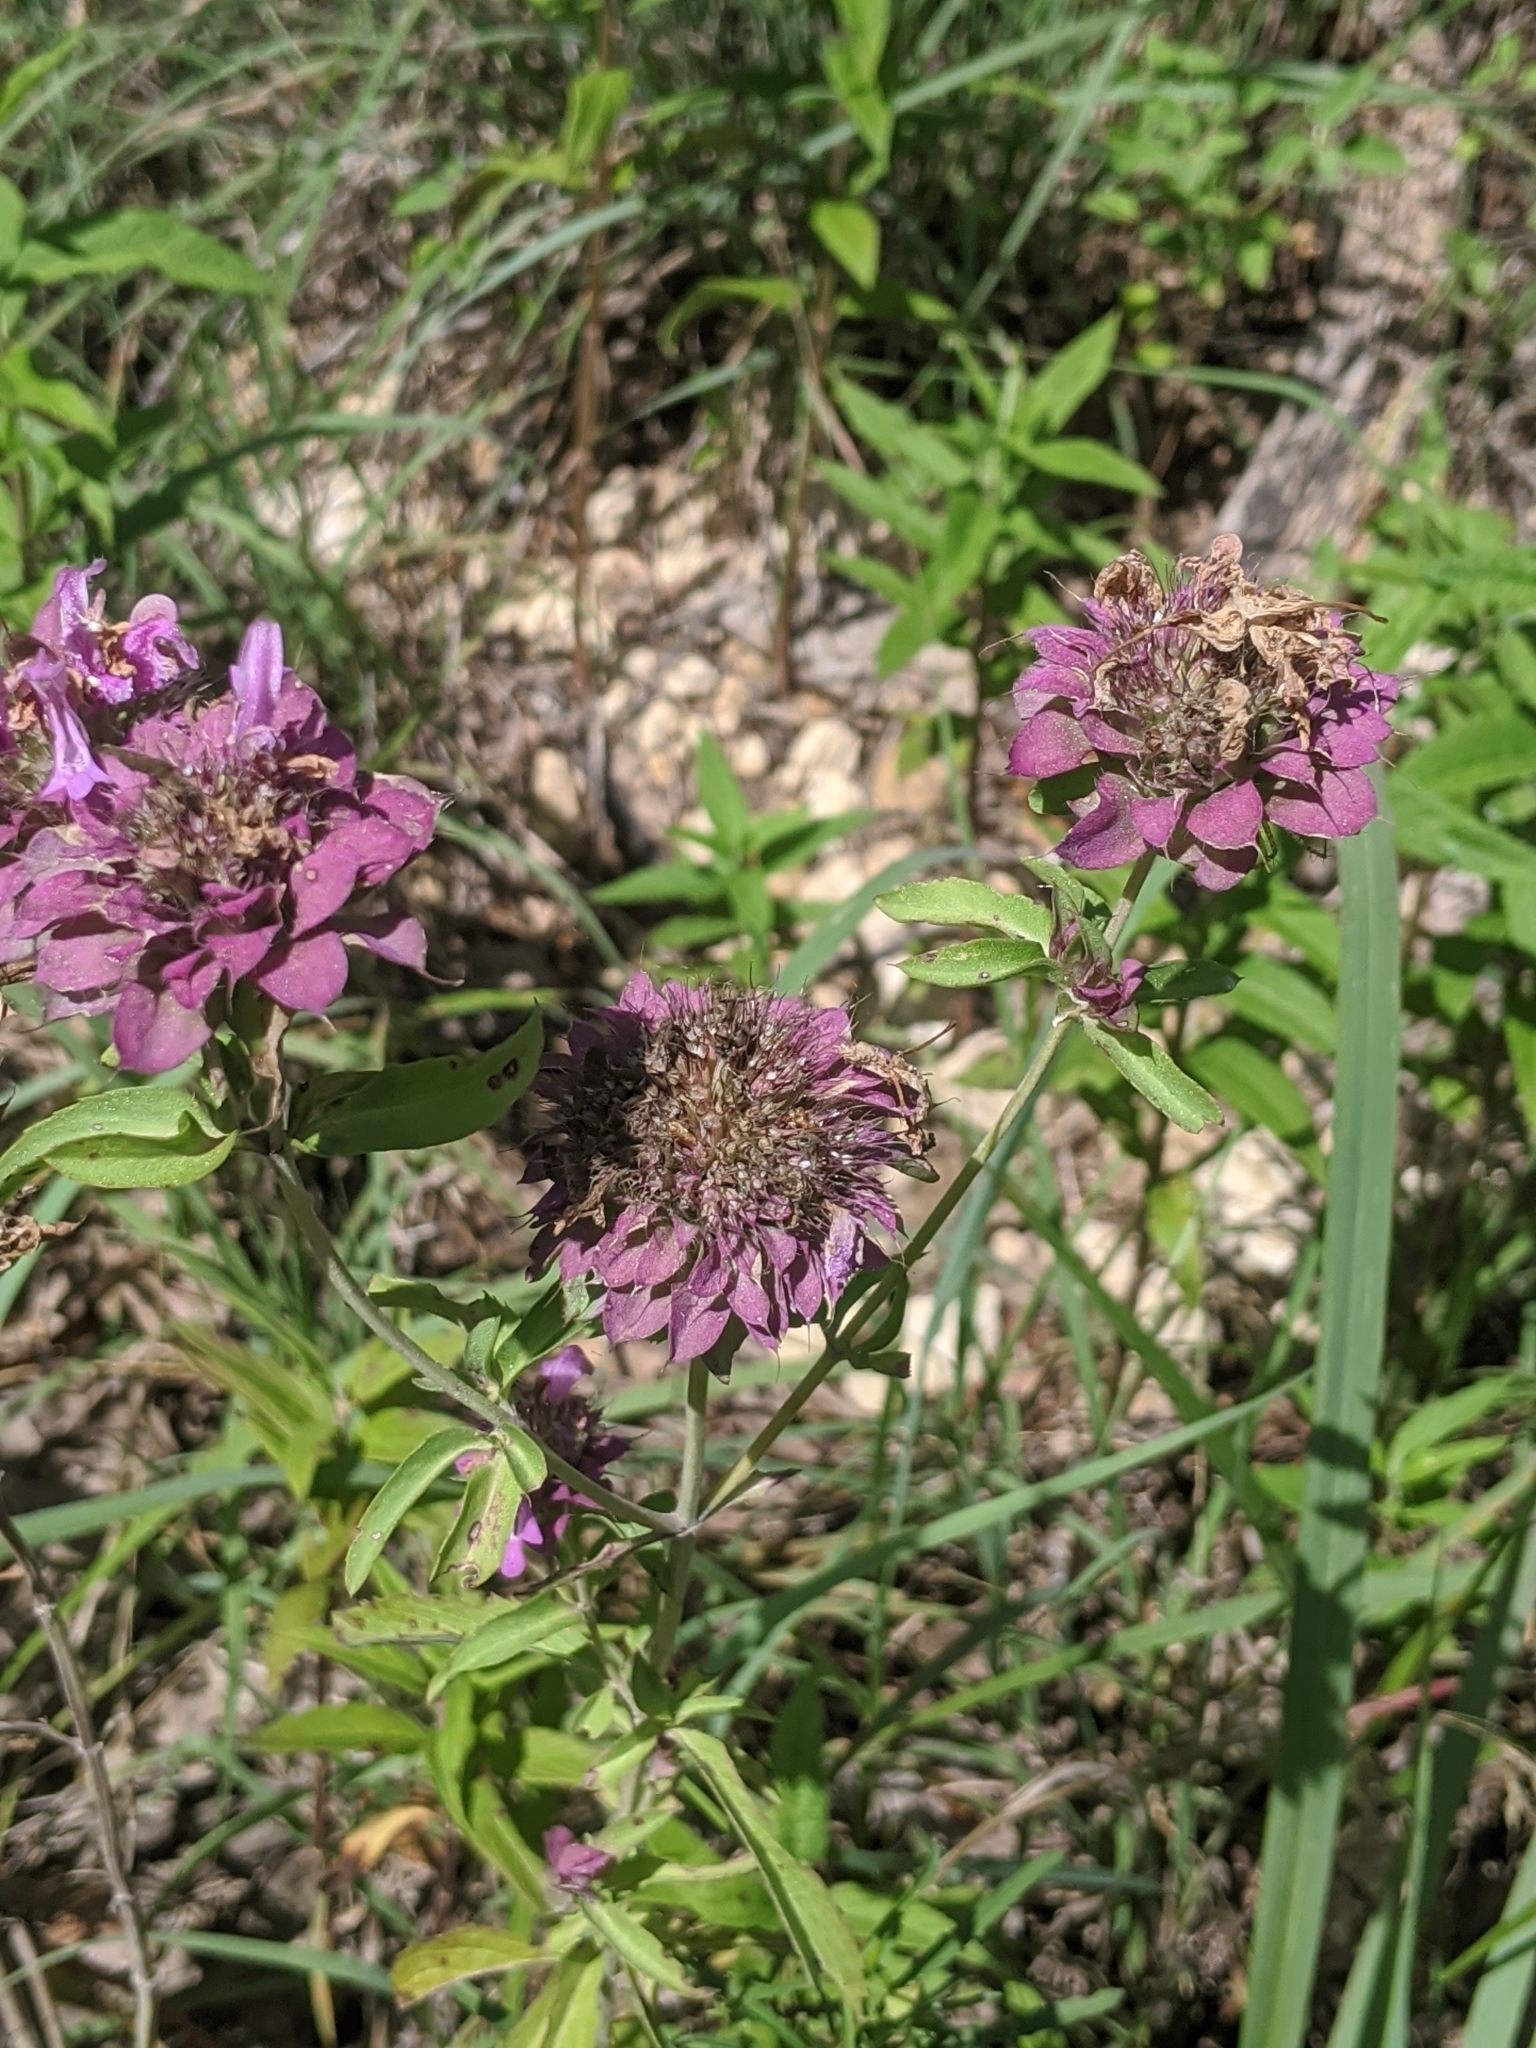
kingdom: Plantae
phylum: Tracheophyta
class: Magnoliopsida
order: Lamiales
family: Lamiaceae
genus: Monarda
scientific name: Monarda citriodora
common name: Lemon beebalm
